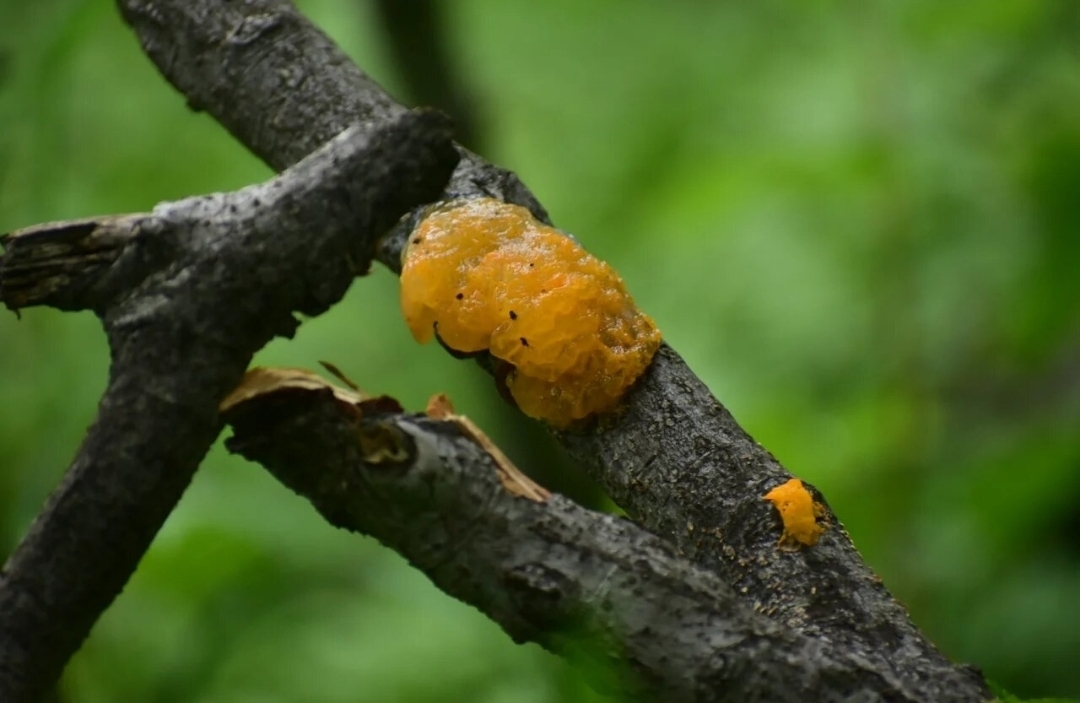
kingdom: Fungi
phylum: Basidiomycota
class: Tremellomycetes
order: Tremellales
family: Tremellaceae
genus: Tremella
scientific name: Tremella mesenterica
